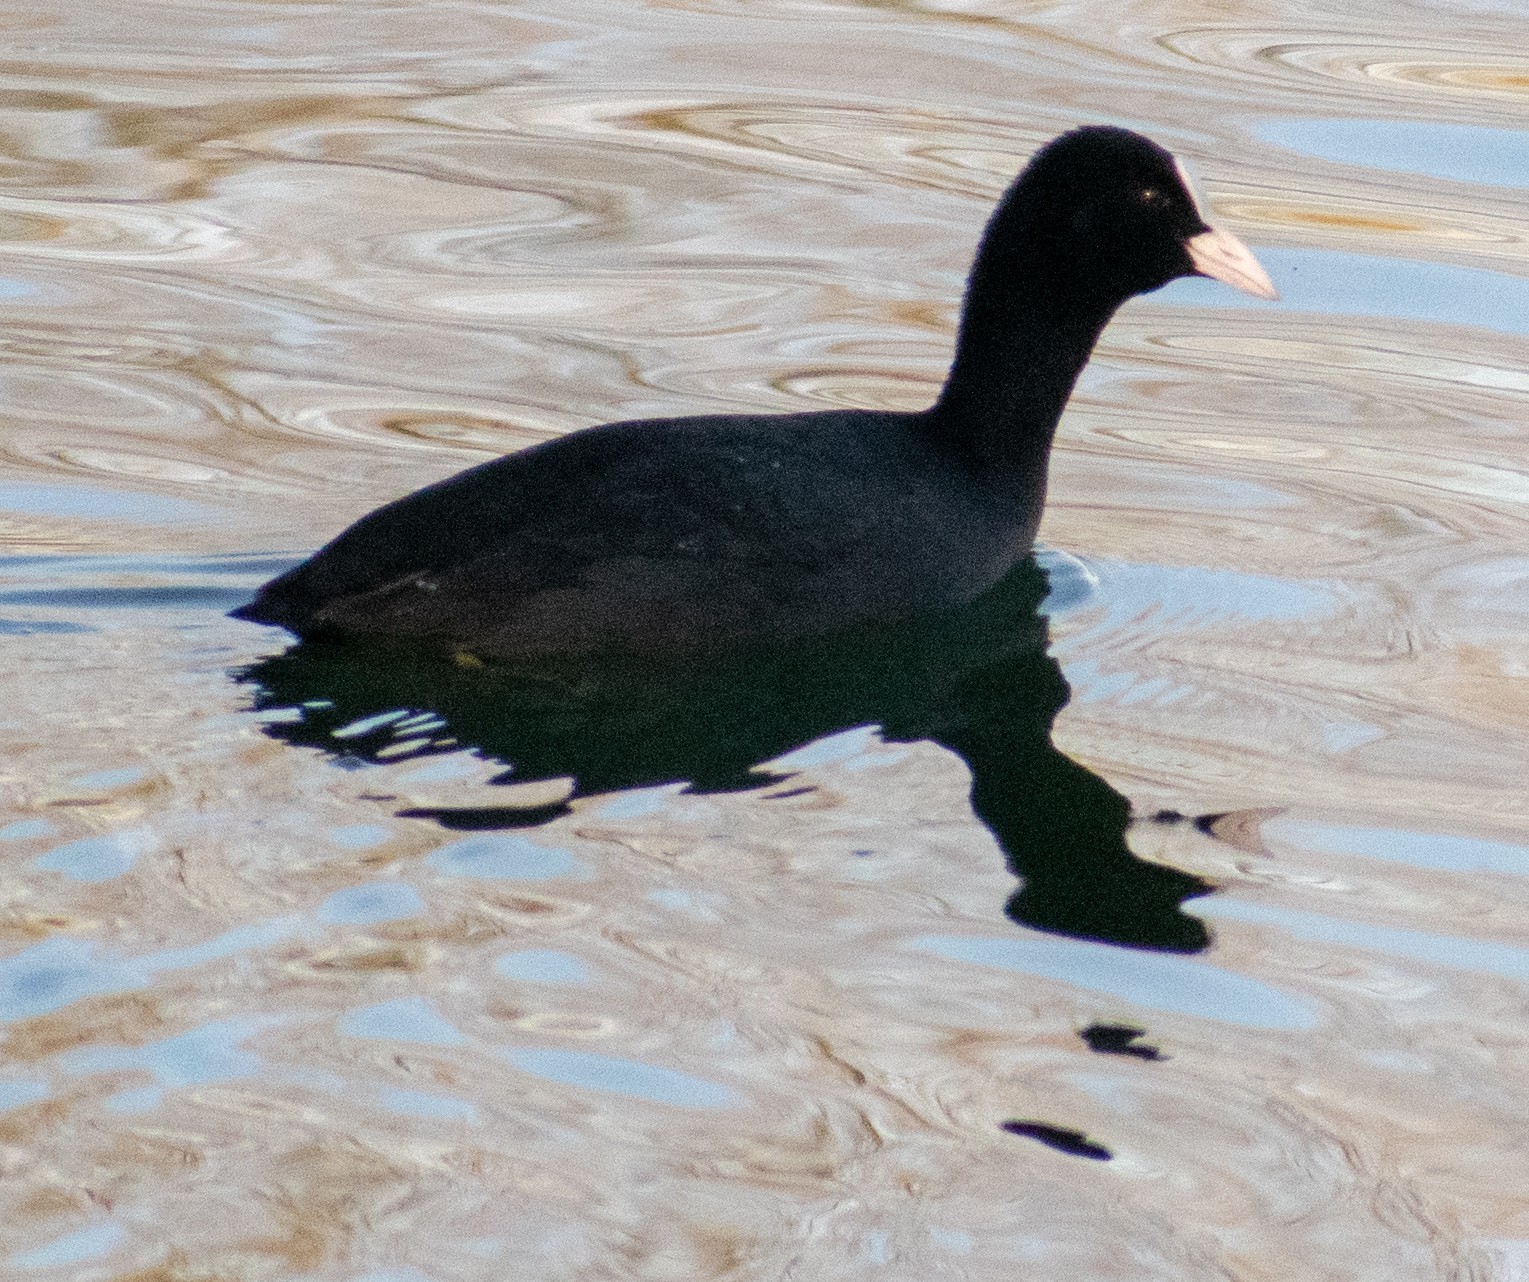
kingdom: Animalia
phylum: Chordata
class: Aves
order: Gruiformes
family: Rallidae
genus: Fulica
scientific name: Fulica atra
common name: Eurasian coot
